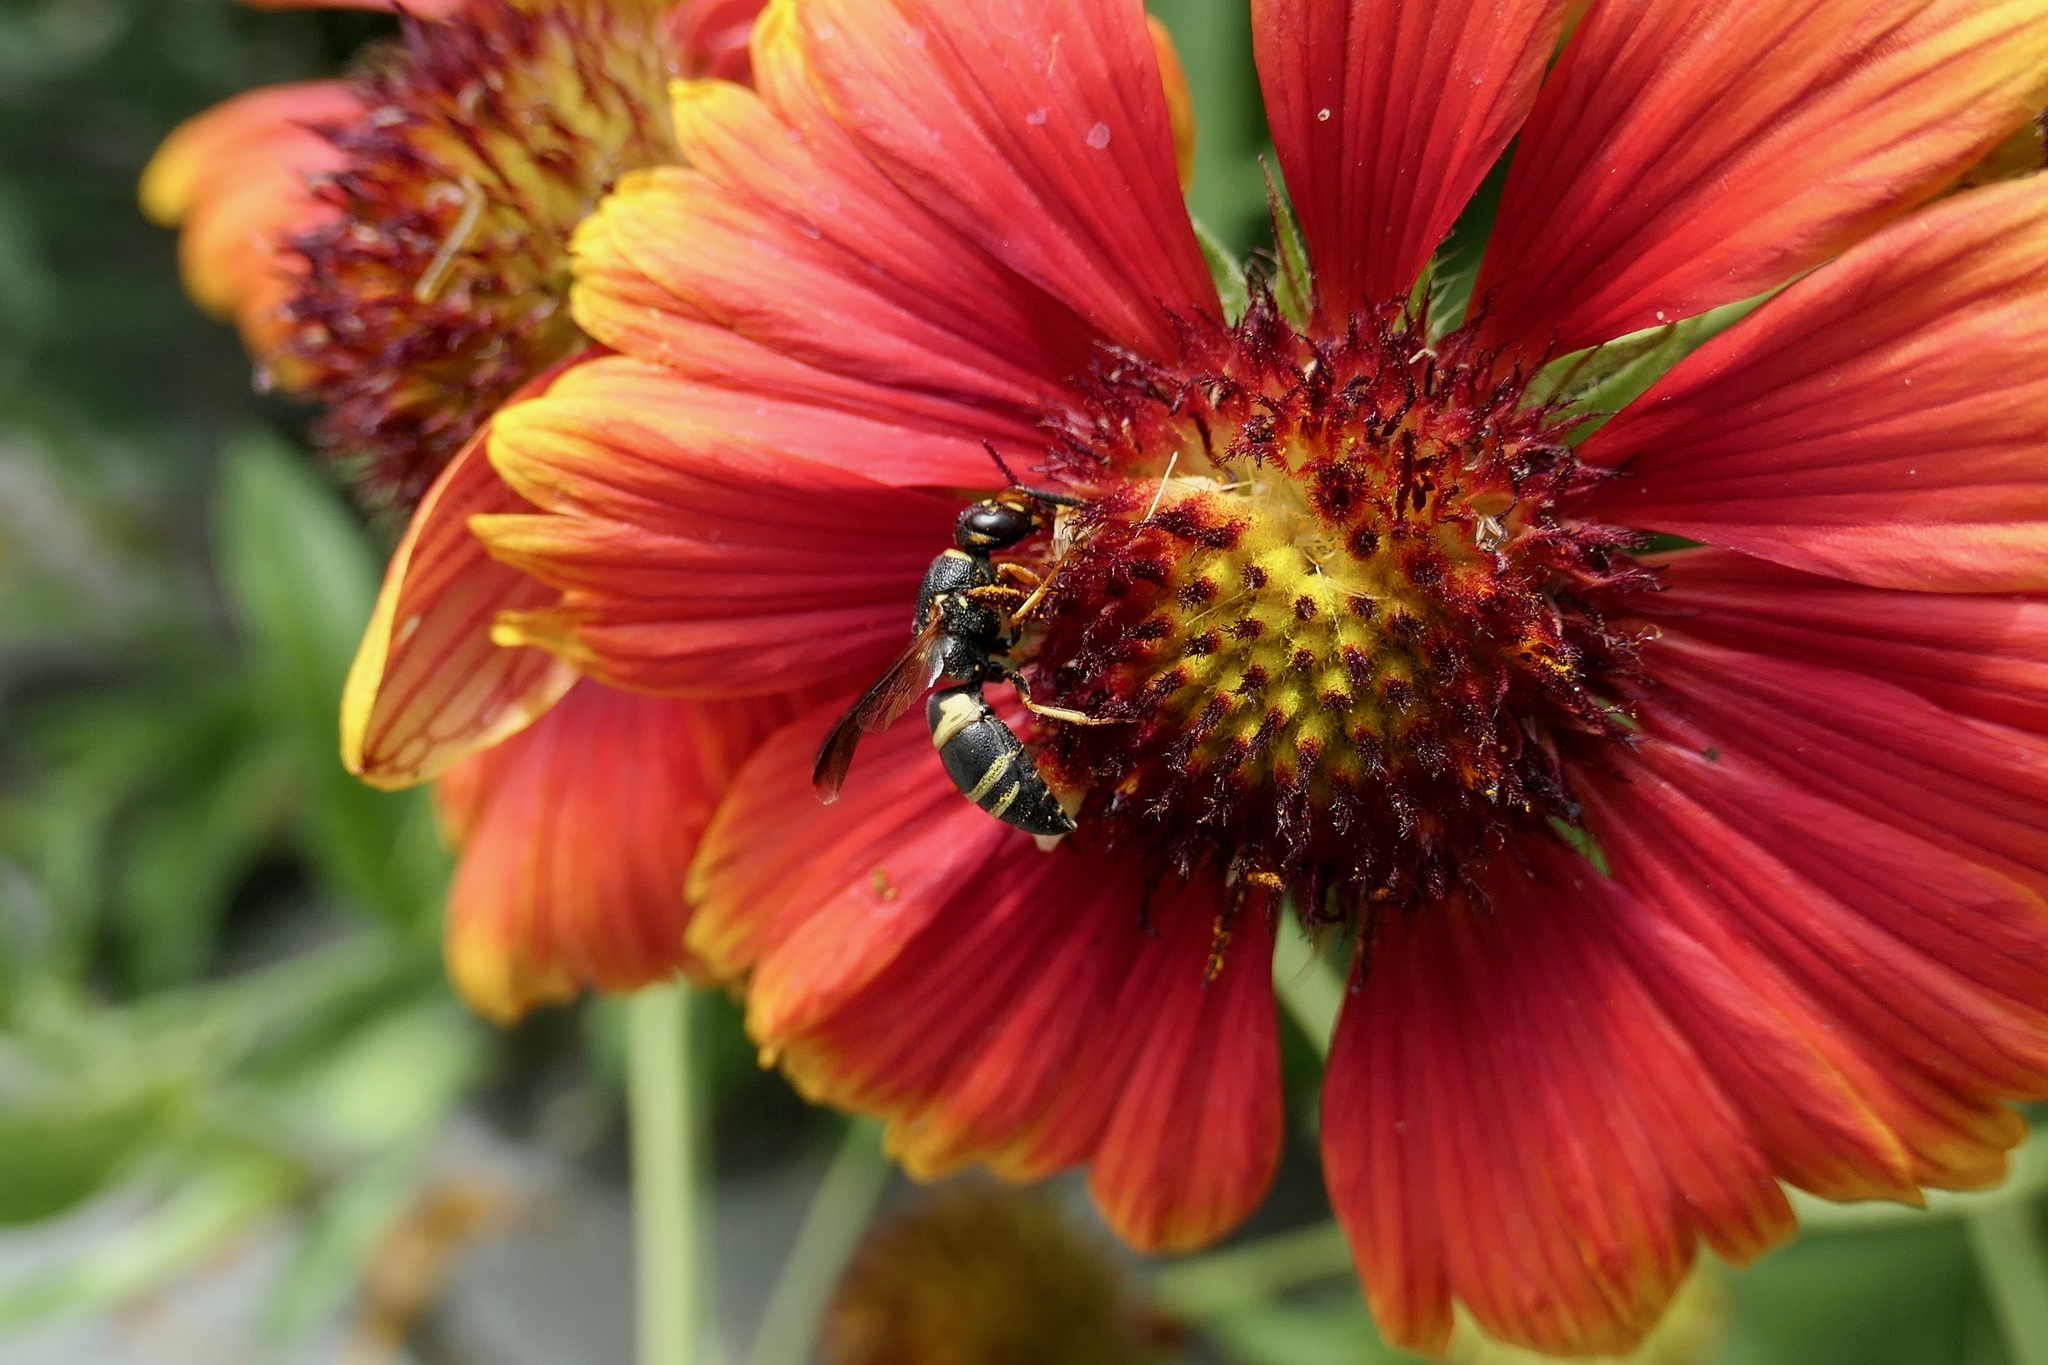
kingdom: Animalia
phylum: Arthropoda
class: Insecta
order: Hymenoptera
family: Eumenidae
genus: Euodynerus
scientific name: Euodynerus hidalgo
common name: Wasp
